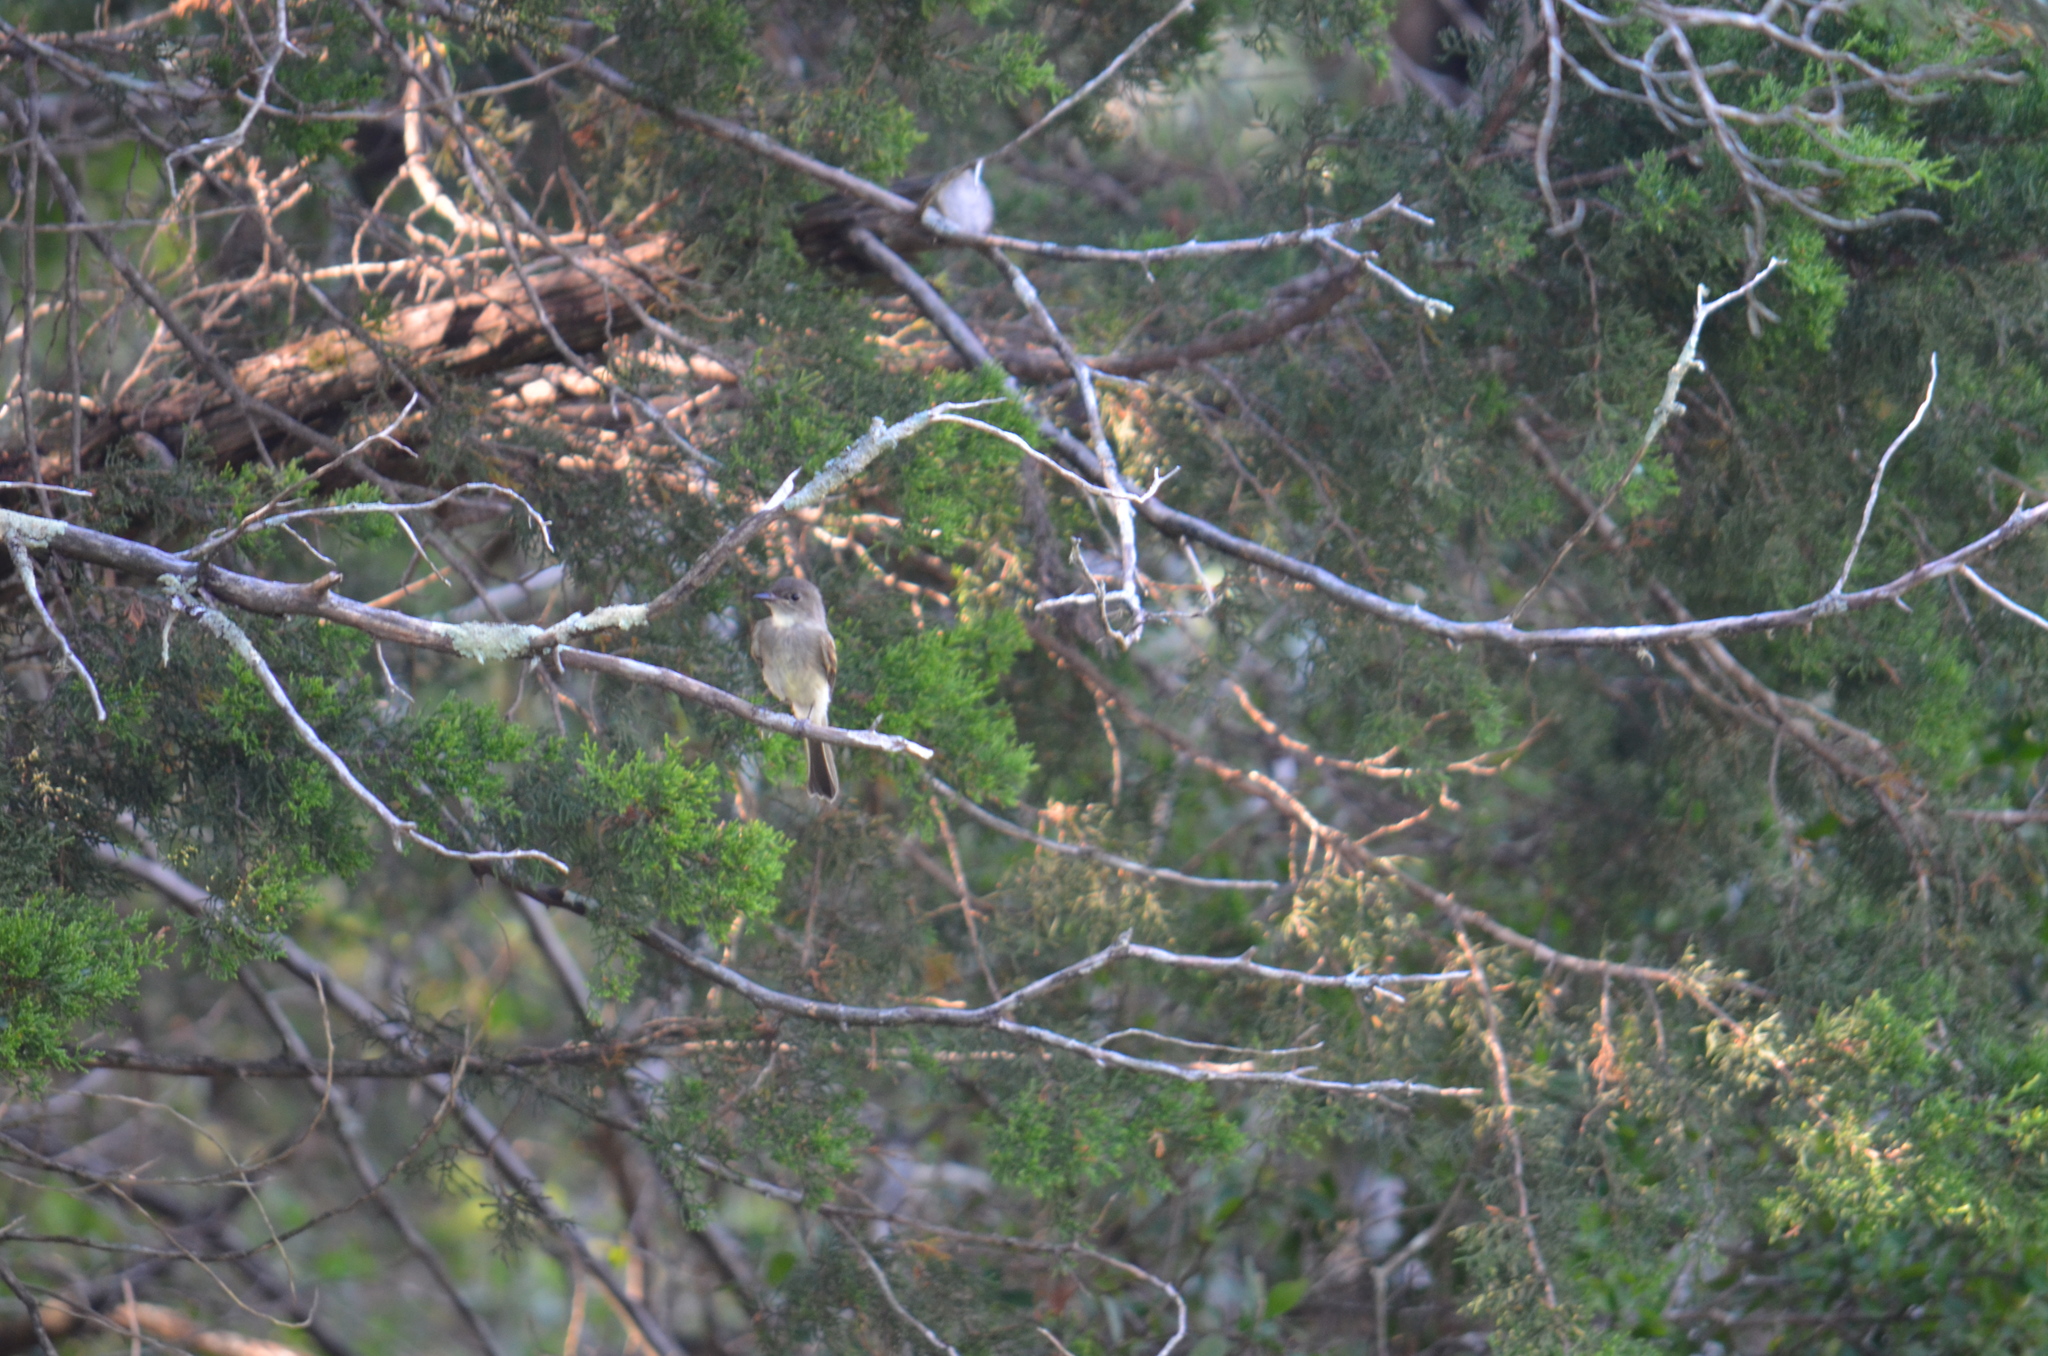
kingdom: Animalia
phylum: Chordata
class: Aves
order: Passeriformes
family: Tyrannidae
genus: Sayornis
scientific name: Sayornis phoebe
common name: Eastern phoebe
